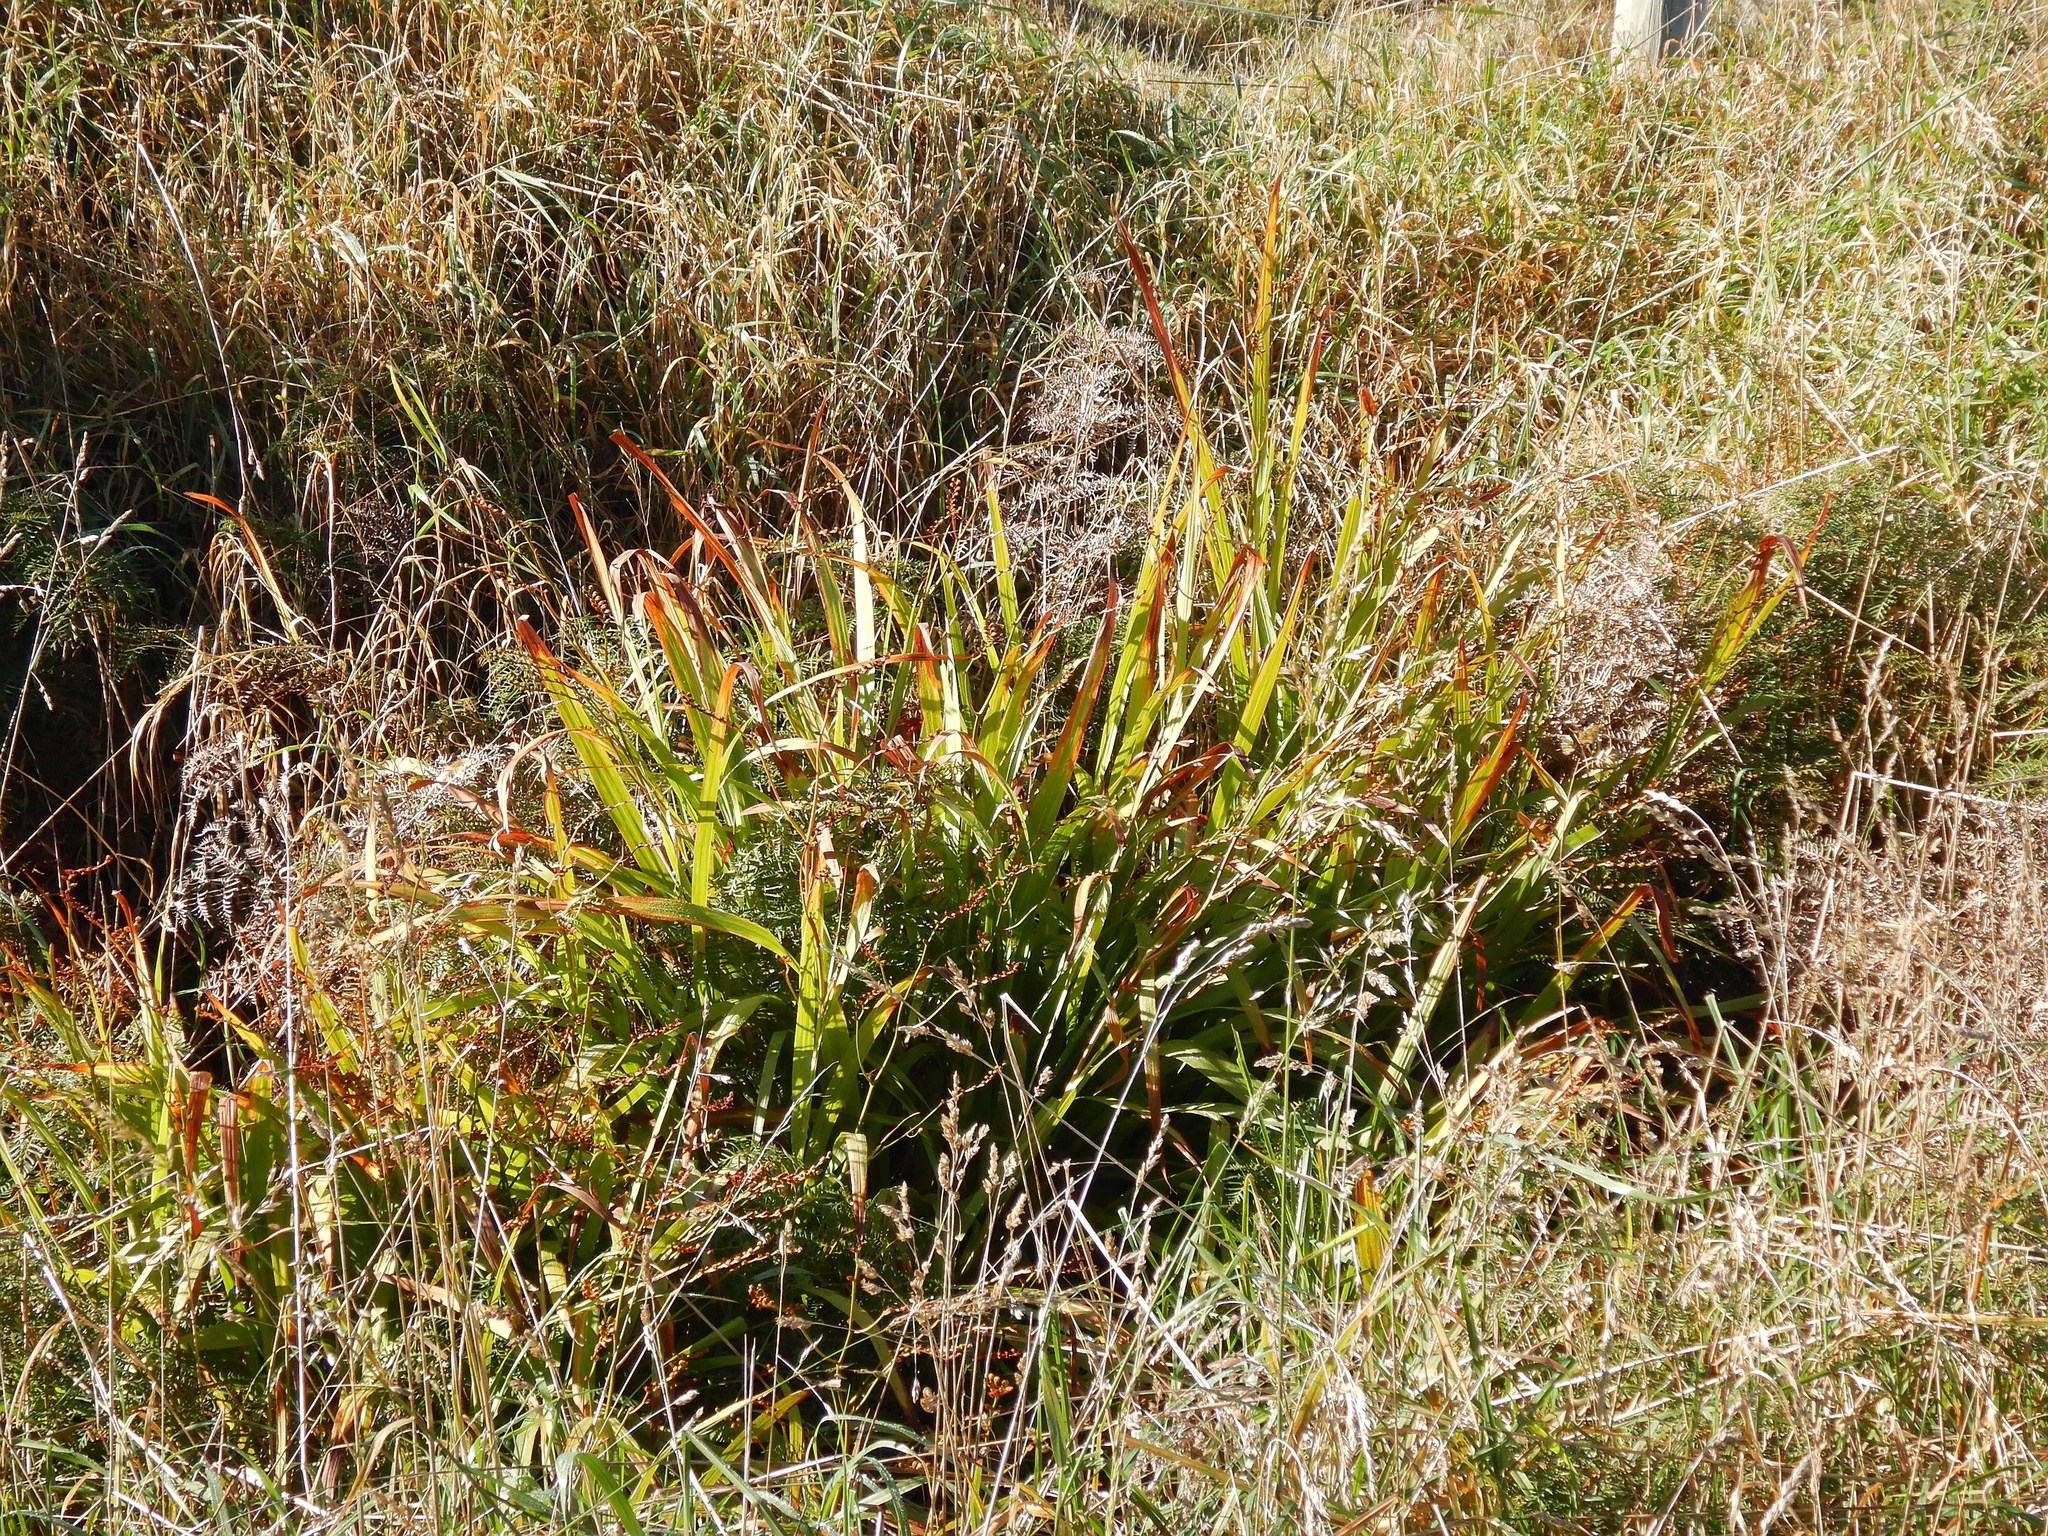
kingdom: Plantae
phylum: Tracheophyta
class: Liliopsida
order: Asparagales
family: Iridaceae
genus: Crocosmia
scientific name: Crocosmia crocosmiiflora
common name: Montbretia
